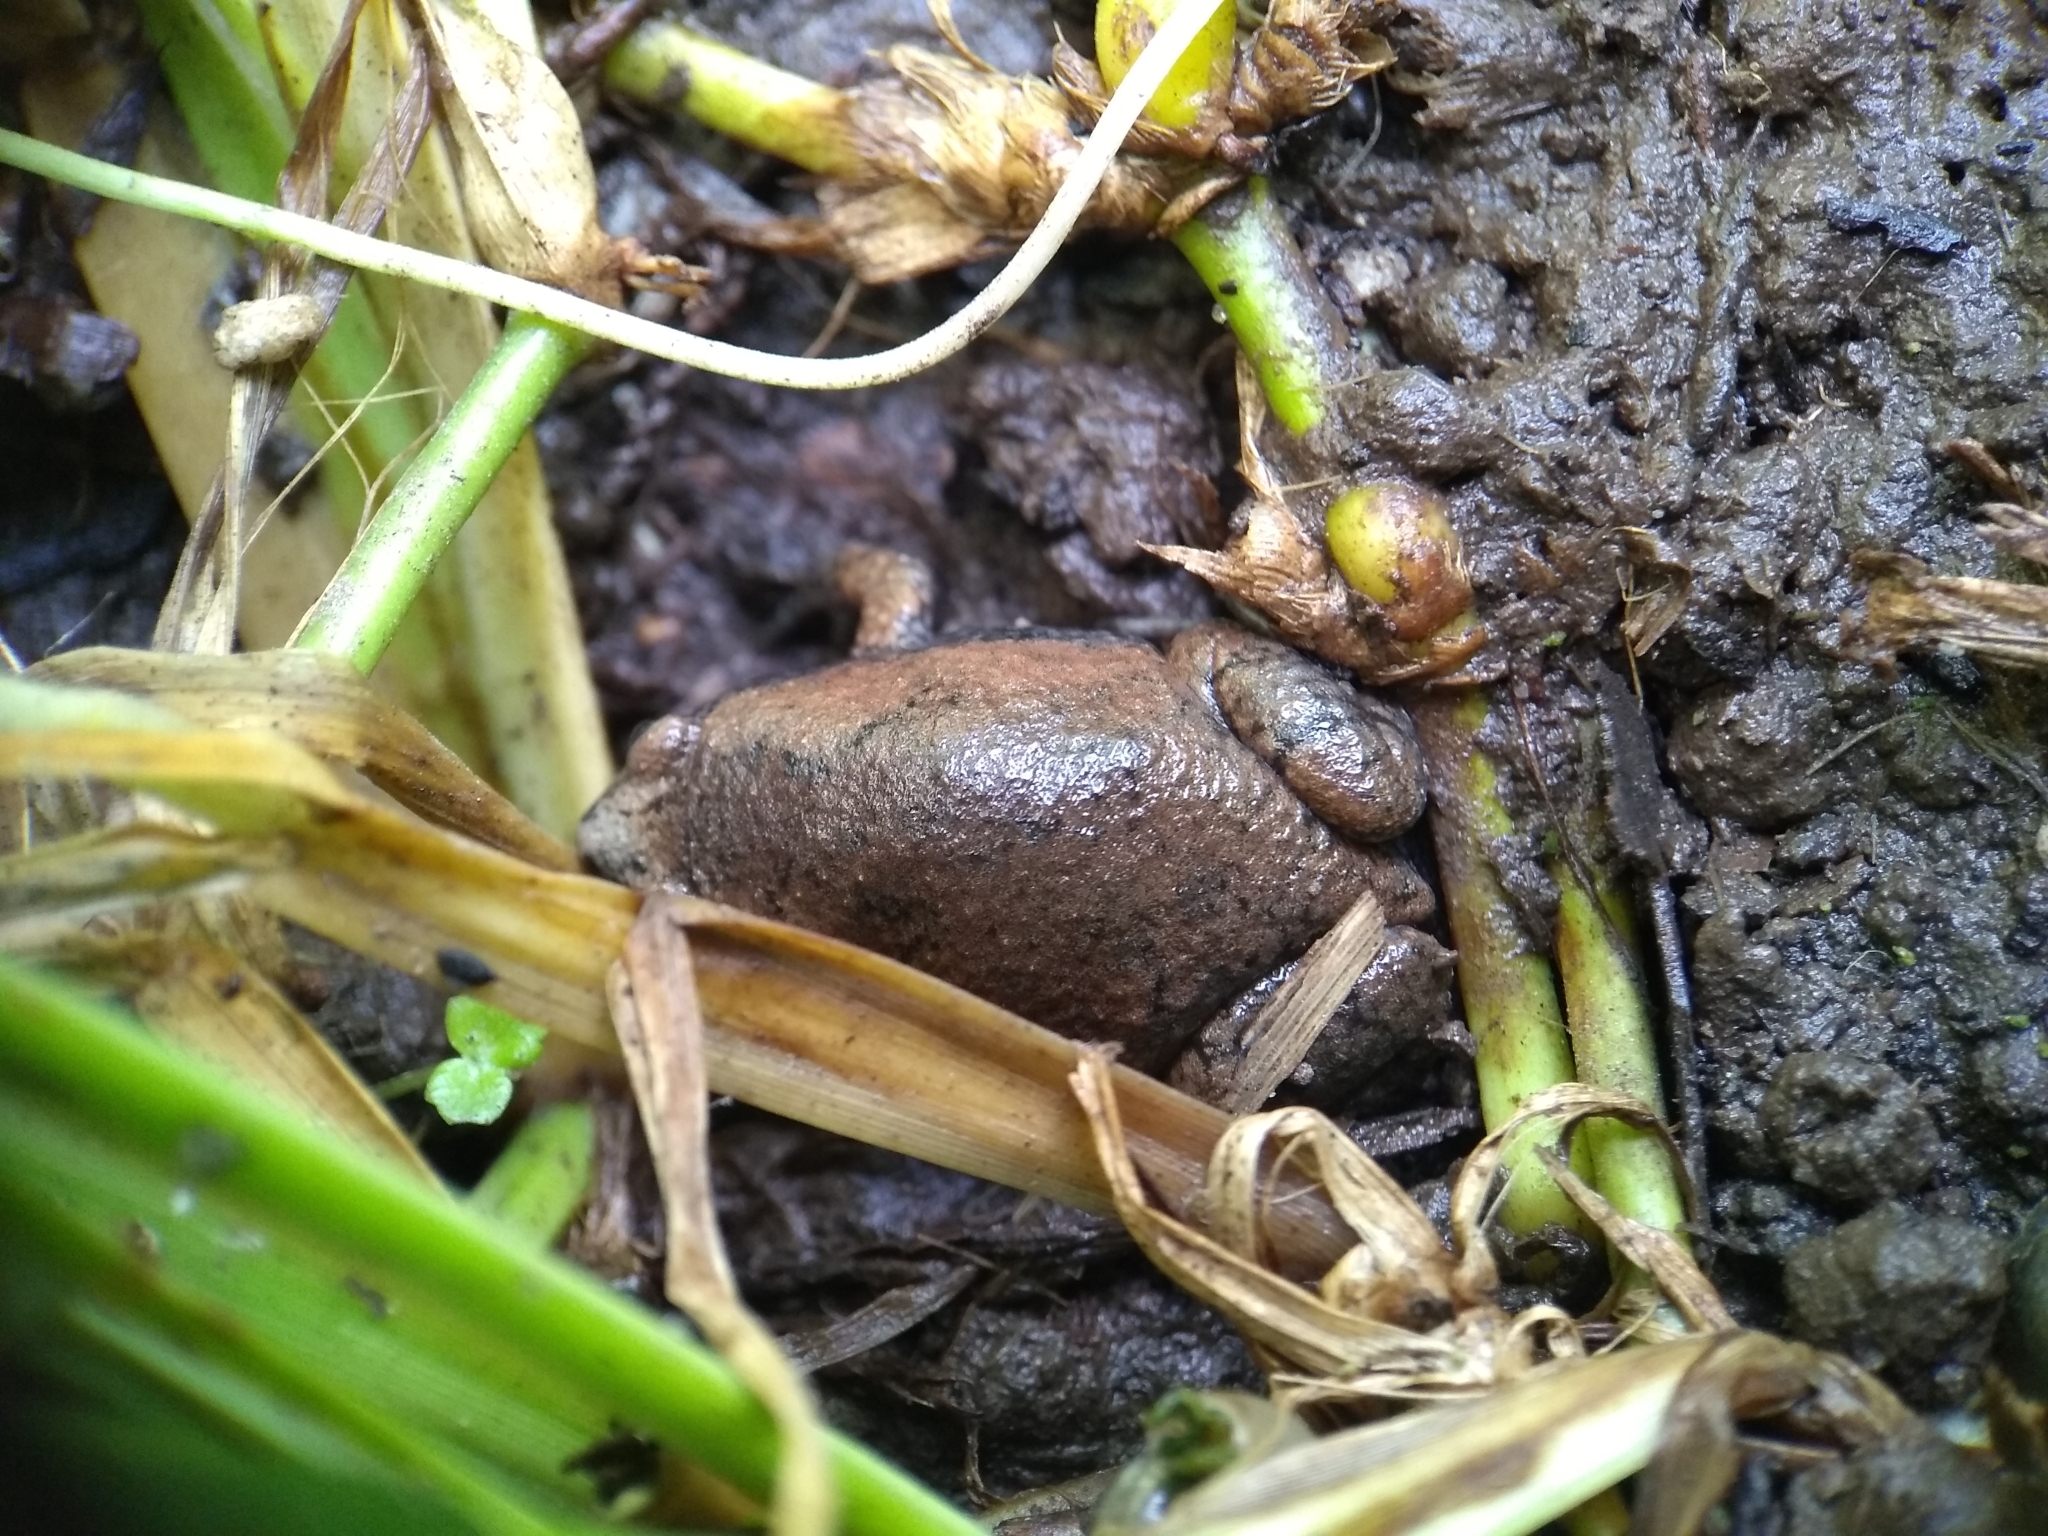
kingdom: Animalia
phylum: Chordata
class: Amphibia
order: Anura
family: Microhylidae
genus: Gastrophryne
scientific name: Gastrophryne carolinensis
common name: Eastern narrowmouth toad
